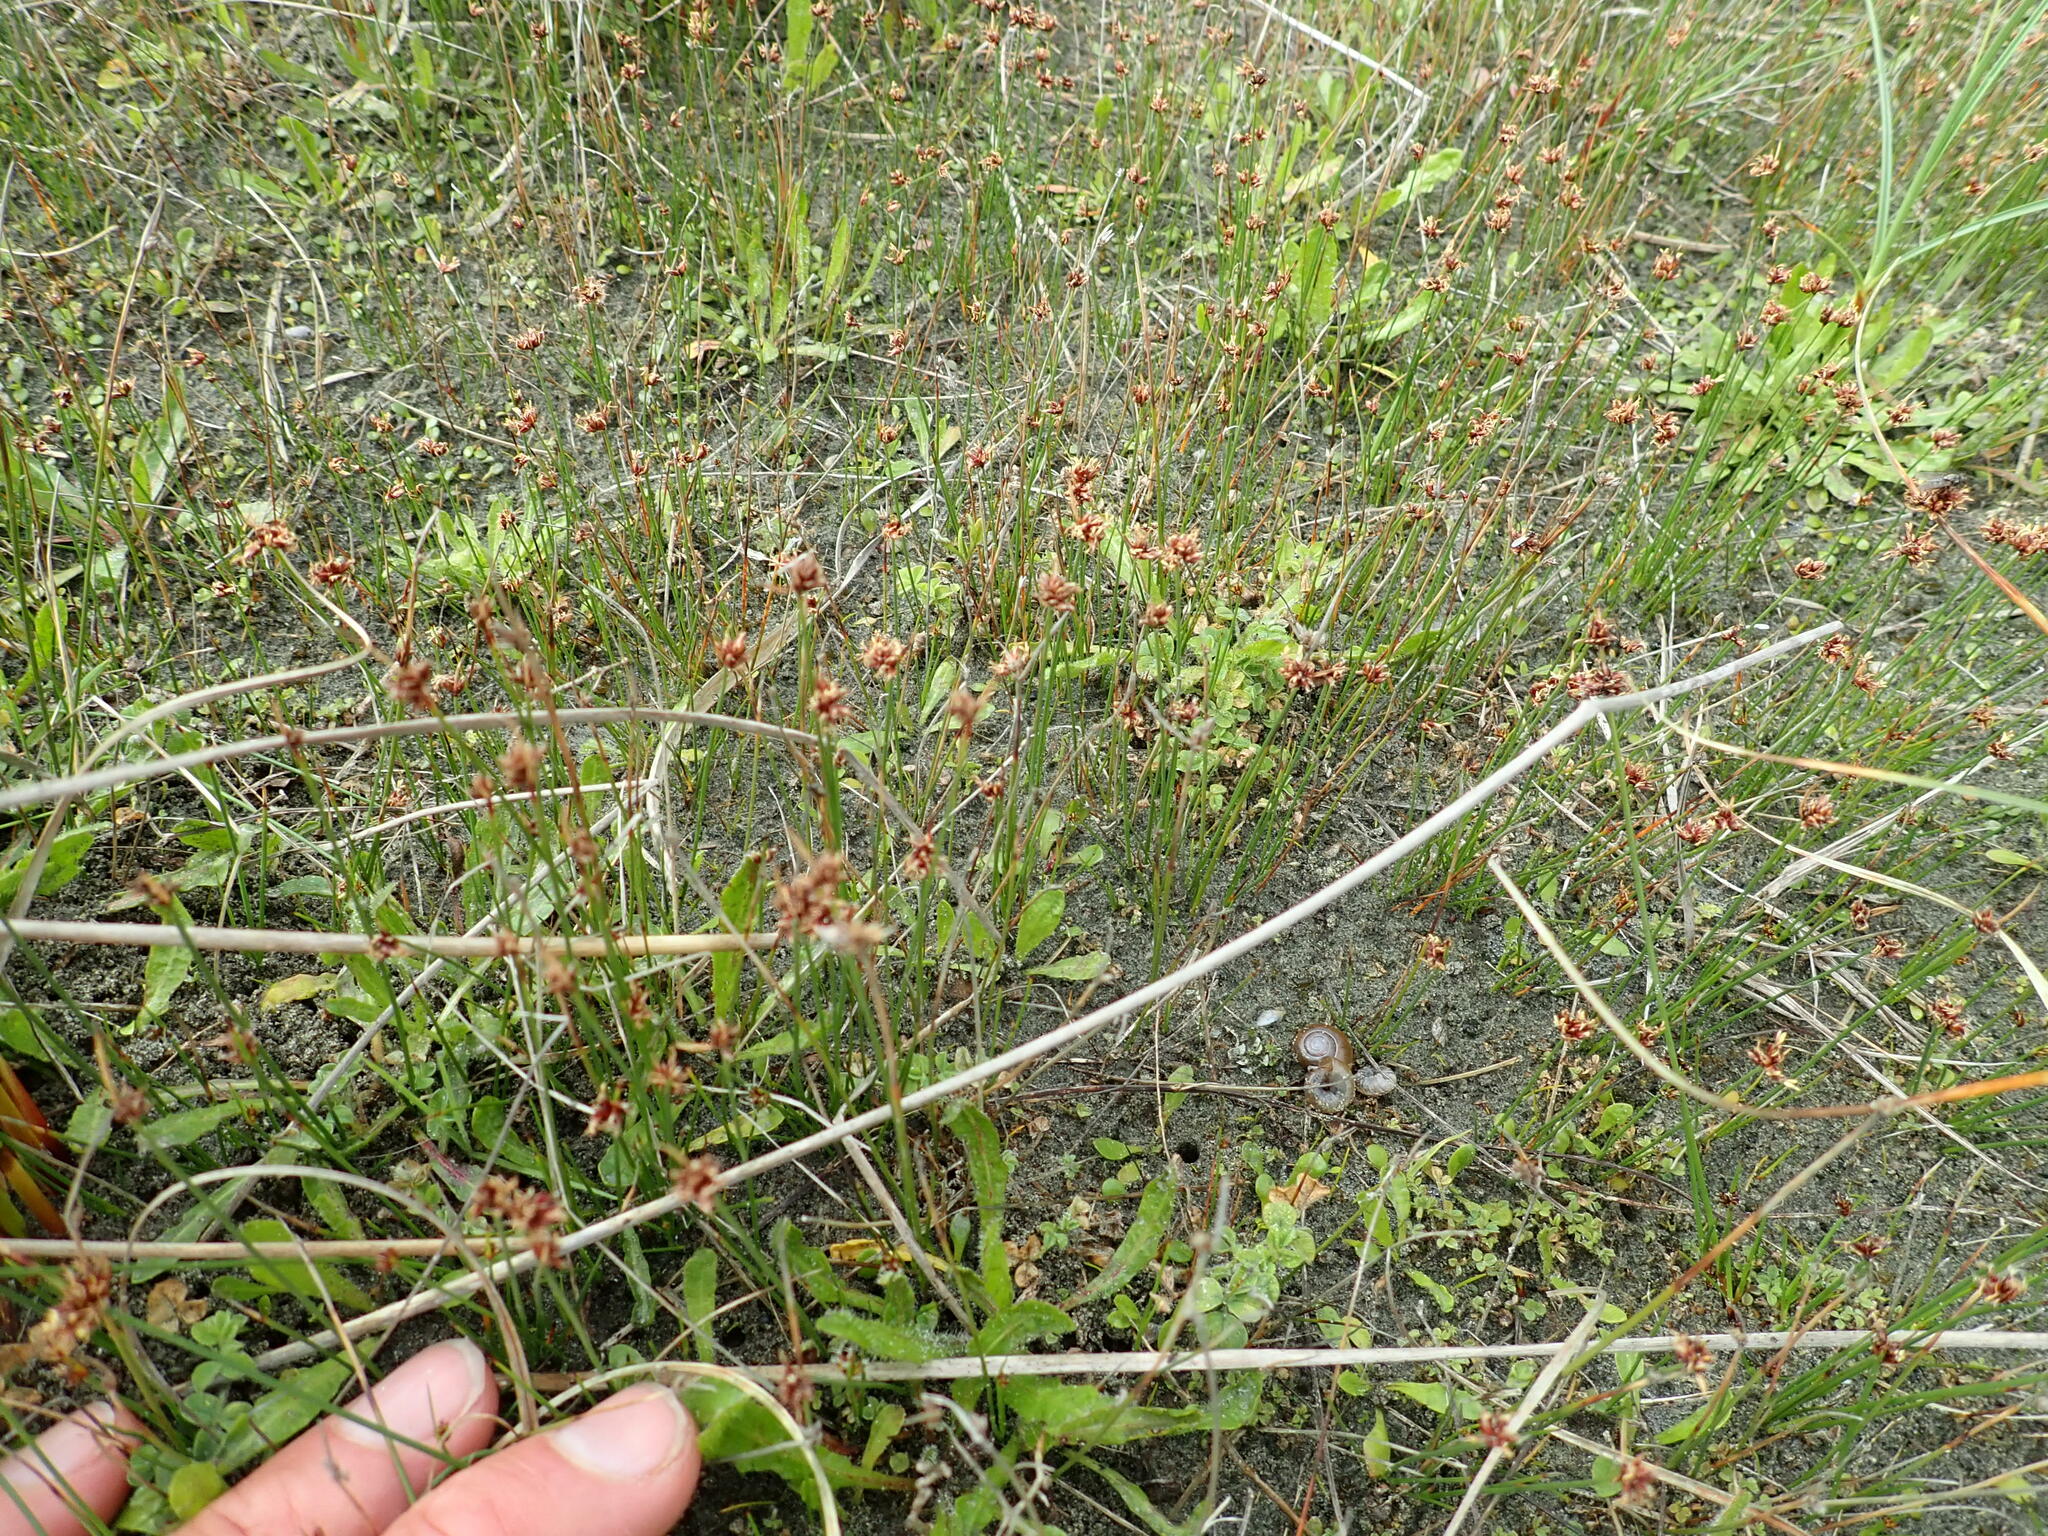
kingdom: Plantae
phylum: Tracheophyta
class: Liliopsida
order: Poales
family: Cyperaceae
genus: Schoenus
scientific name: Schoenus nitens
